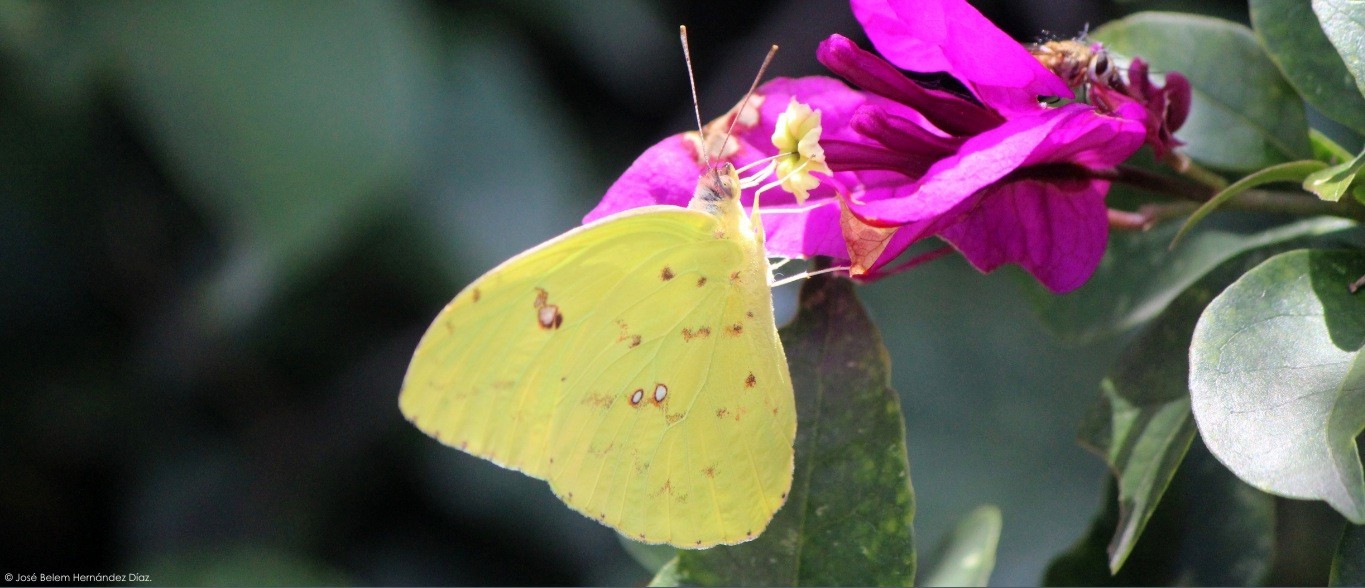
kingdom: Animalia
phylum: Arthropoda
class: Insecta
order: Lepidoptera
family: Pieridae
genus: Phoebis
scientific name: Phoebis sennae
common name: Cloudless sulphur
